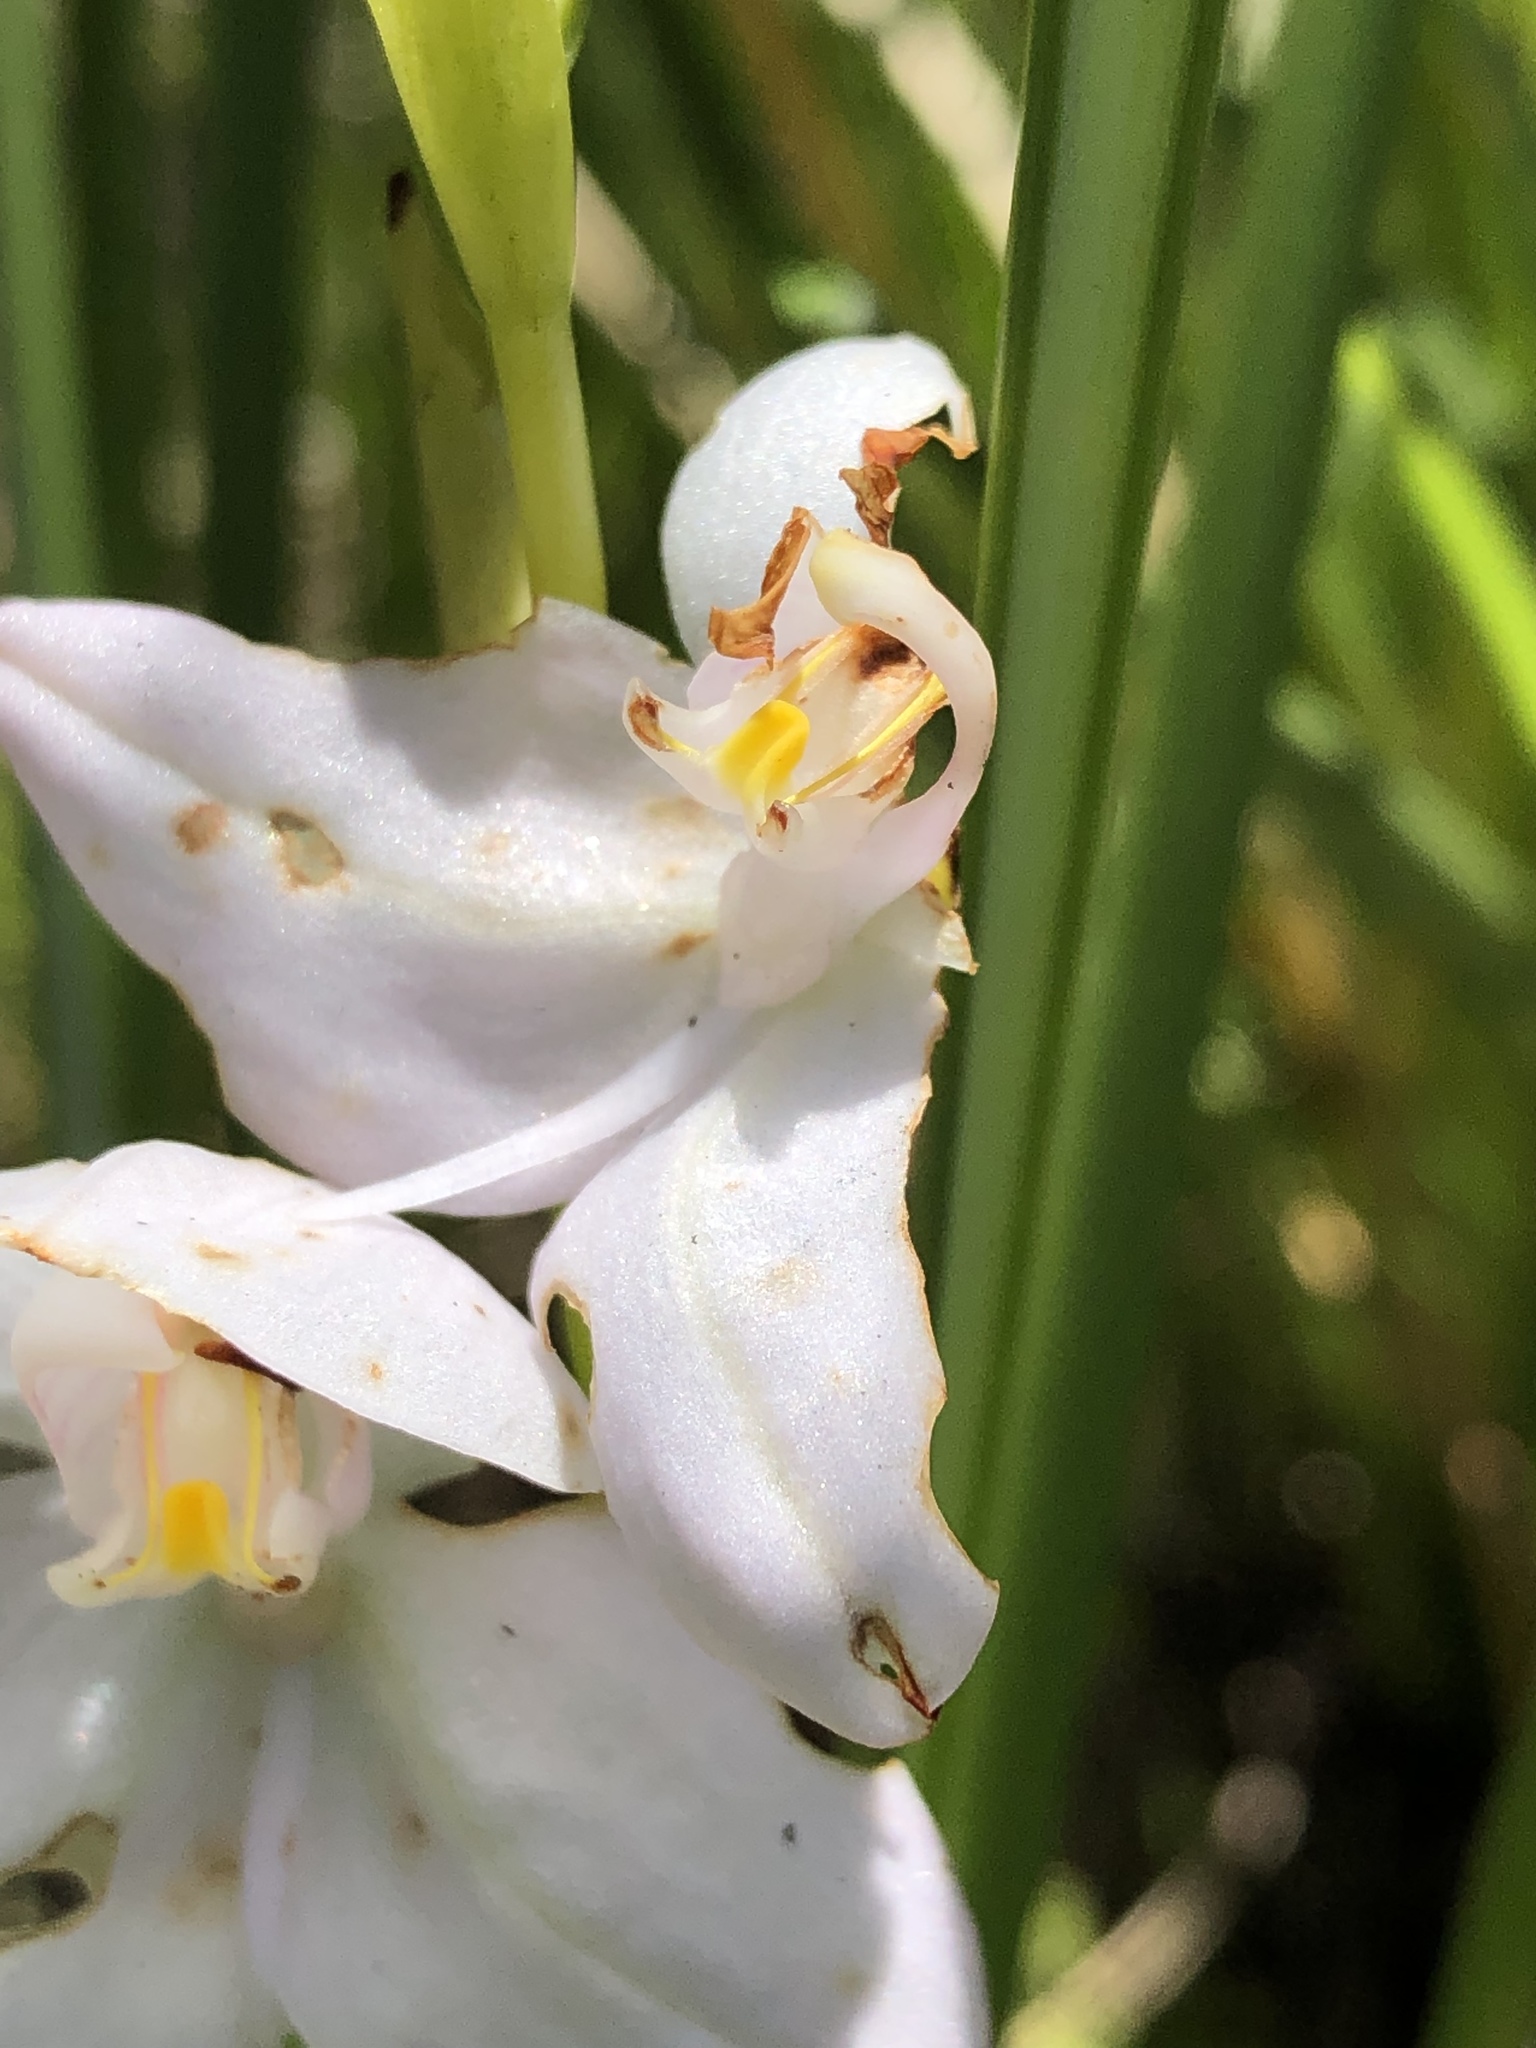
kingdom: Plantae
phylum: Tracheophyta
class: Liliopsida
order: Asparagales
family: Orchidaceae
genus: Disa
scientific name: Disa racemosa
